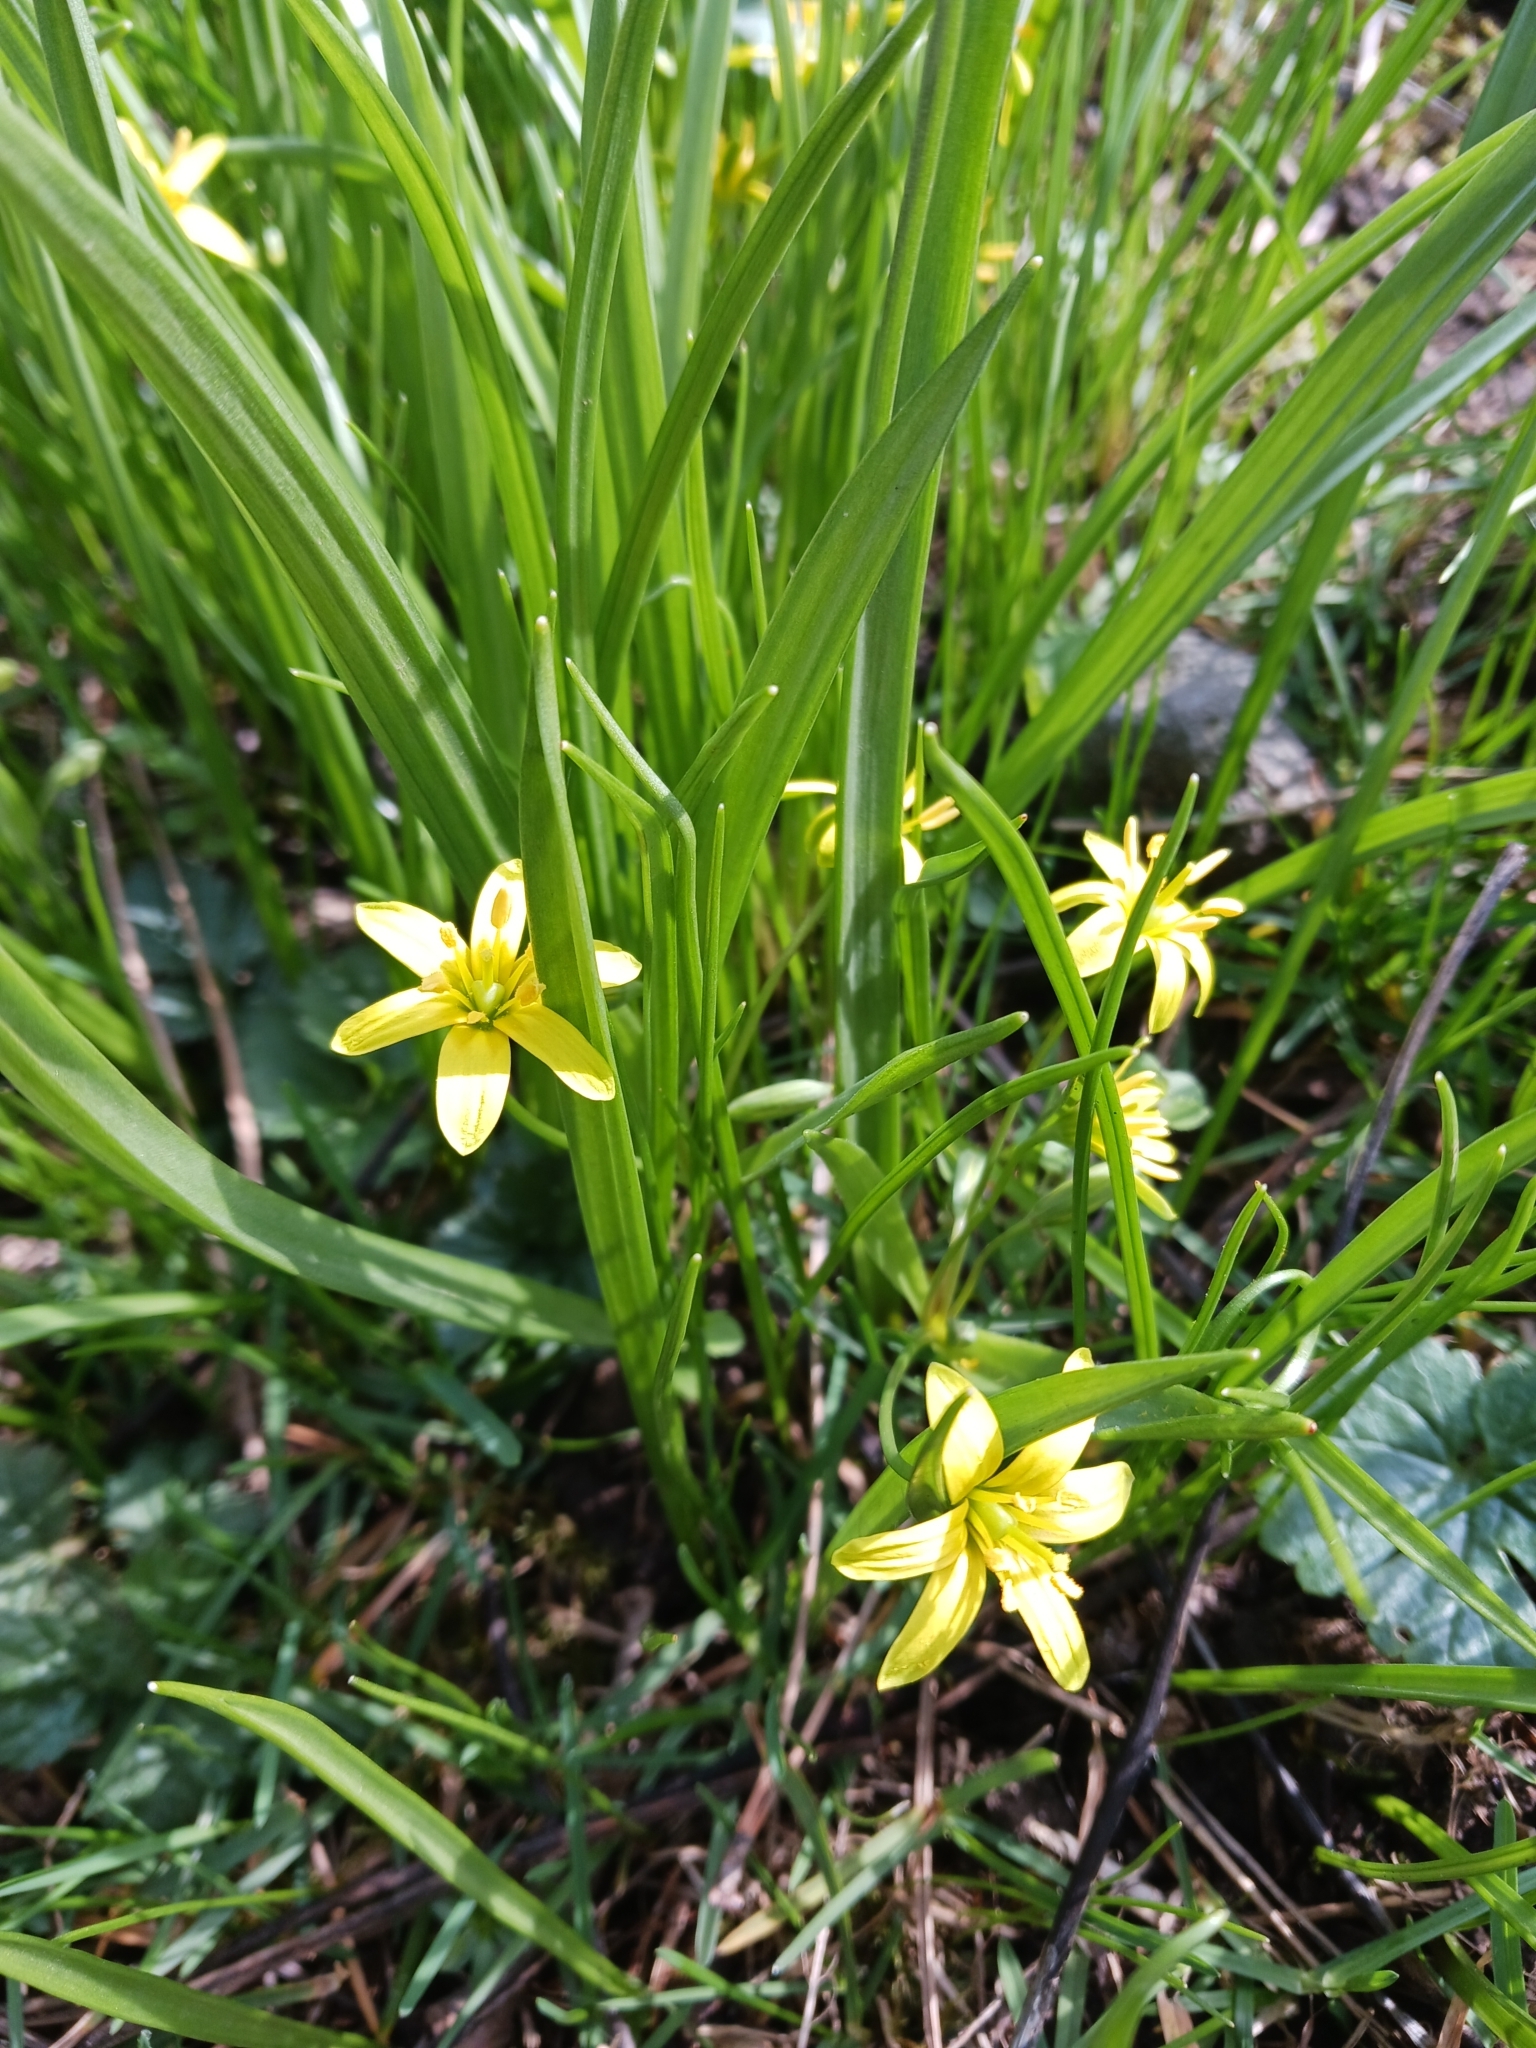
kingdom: Plantae
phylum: Tracheophyta
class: Liliopsida
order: Liliales
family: Liliaceae
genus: Gagea
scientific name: Gagea lutea
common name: Yellow star-of-bethlehem
